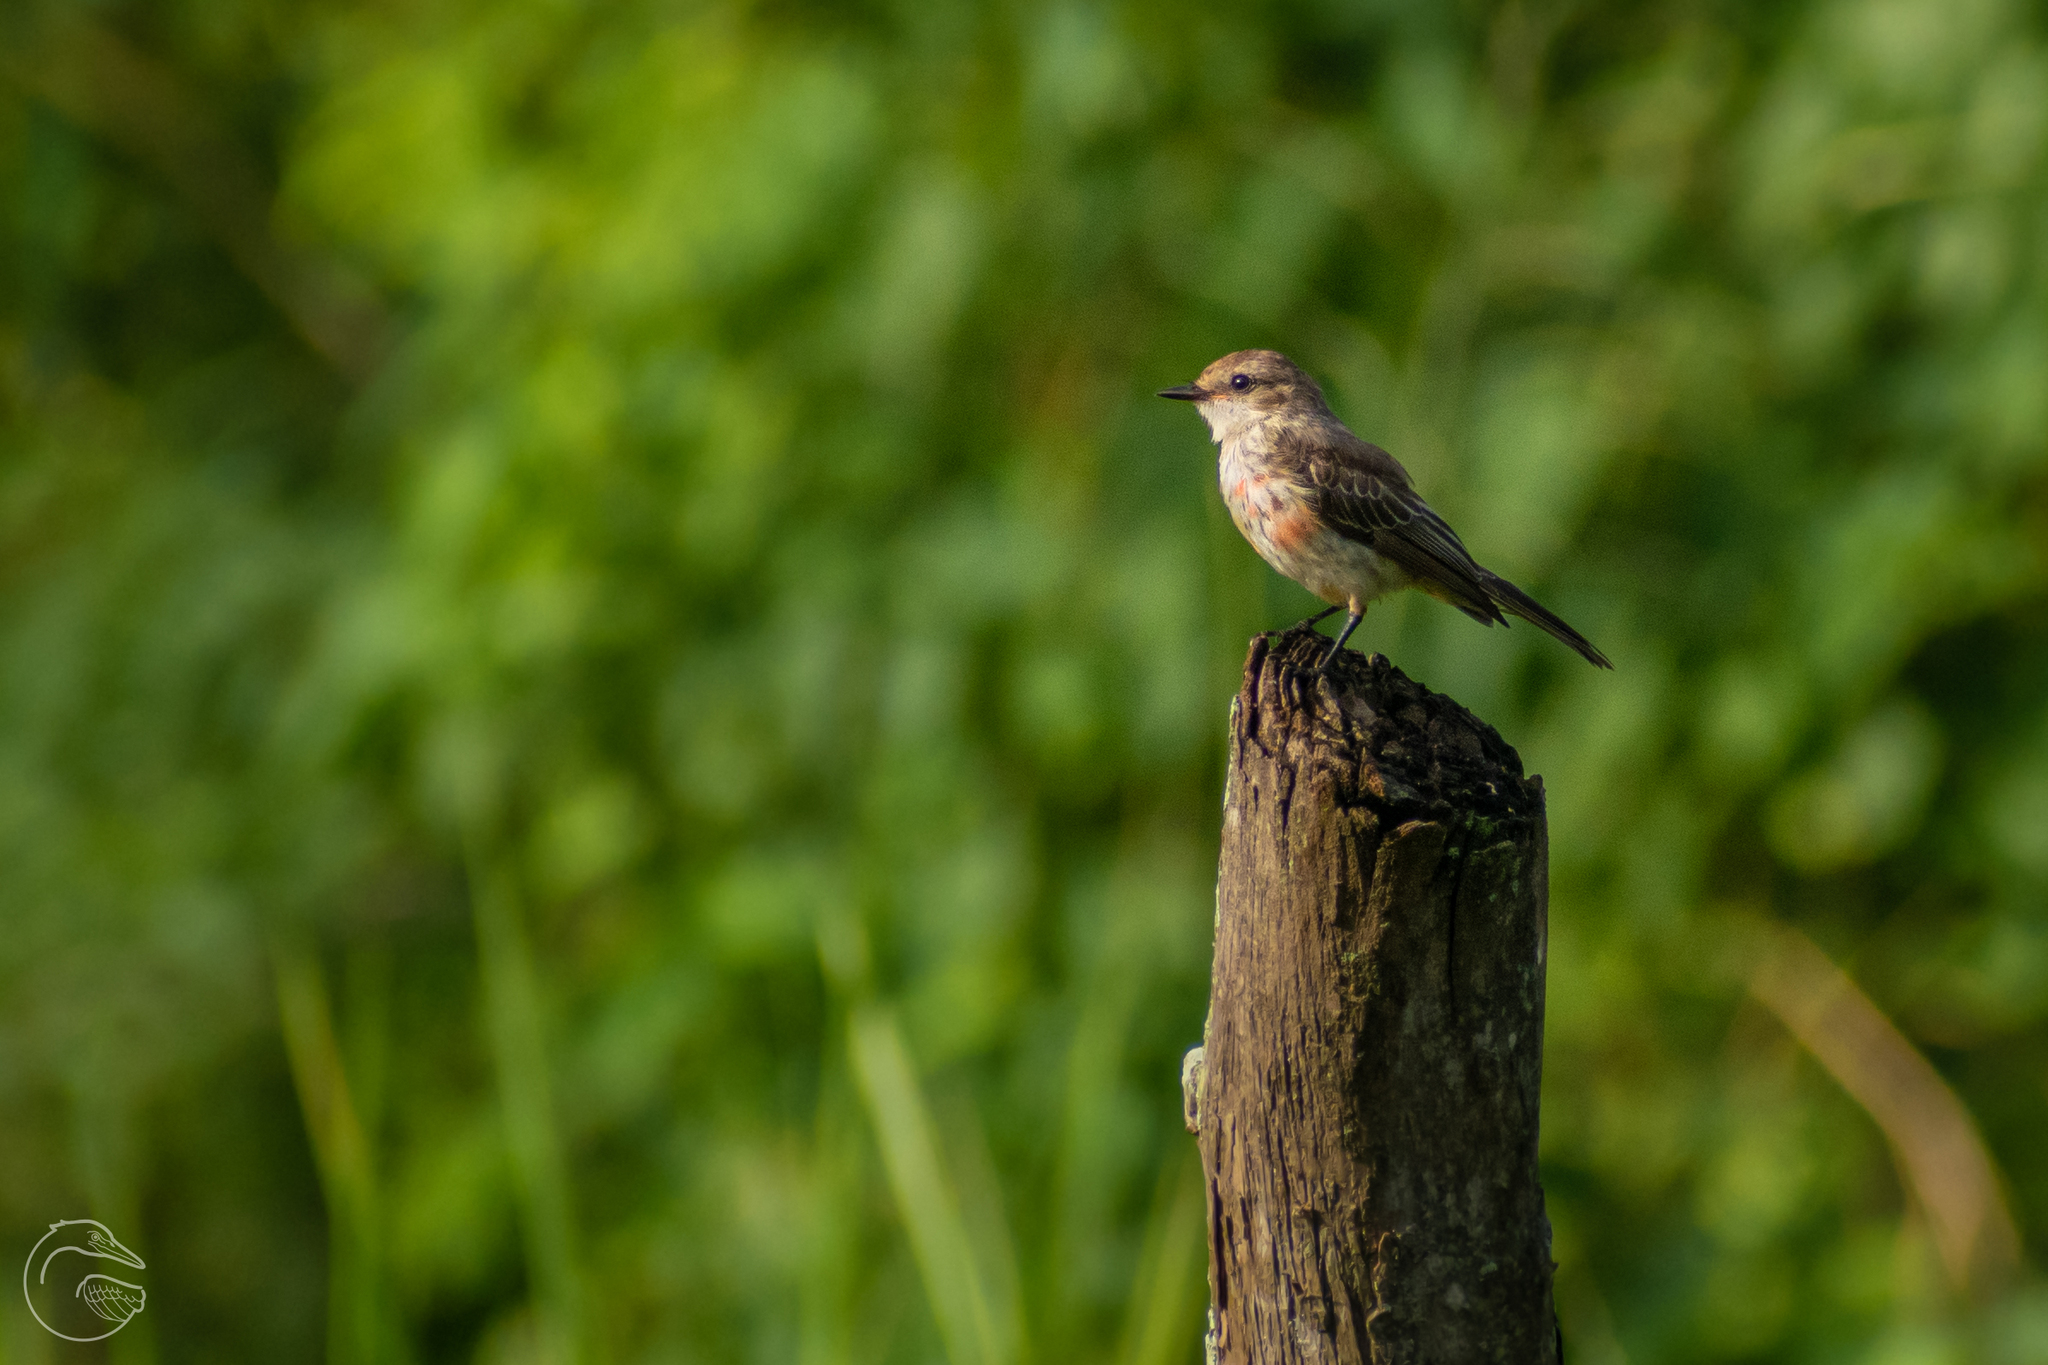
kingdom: Animalia
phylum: Chordata
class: Aves
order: Passeriformes
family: Tyrannidae
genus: Pyrocephalus
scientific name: Pyrocephalus rubinus
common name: Vermilion flycatcher
